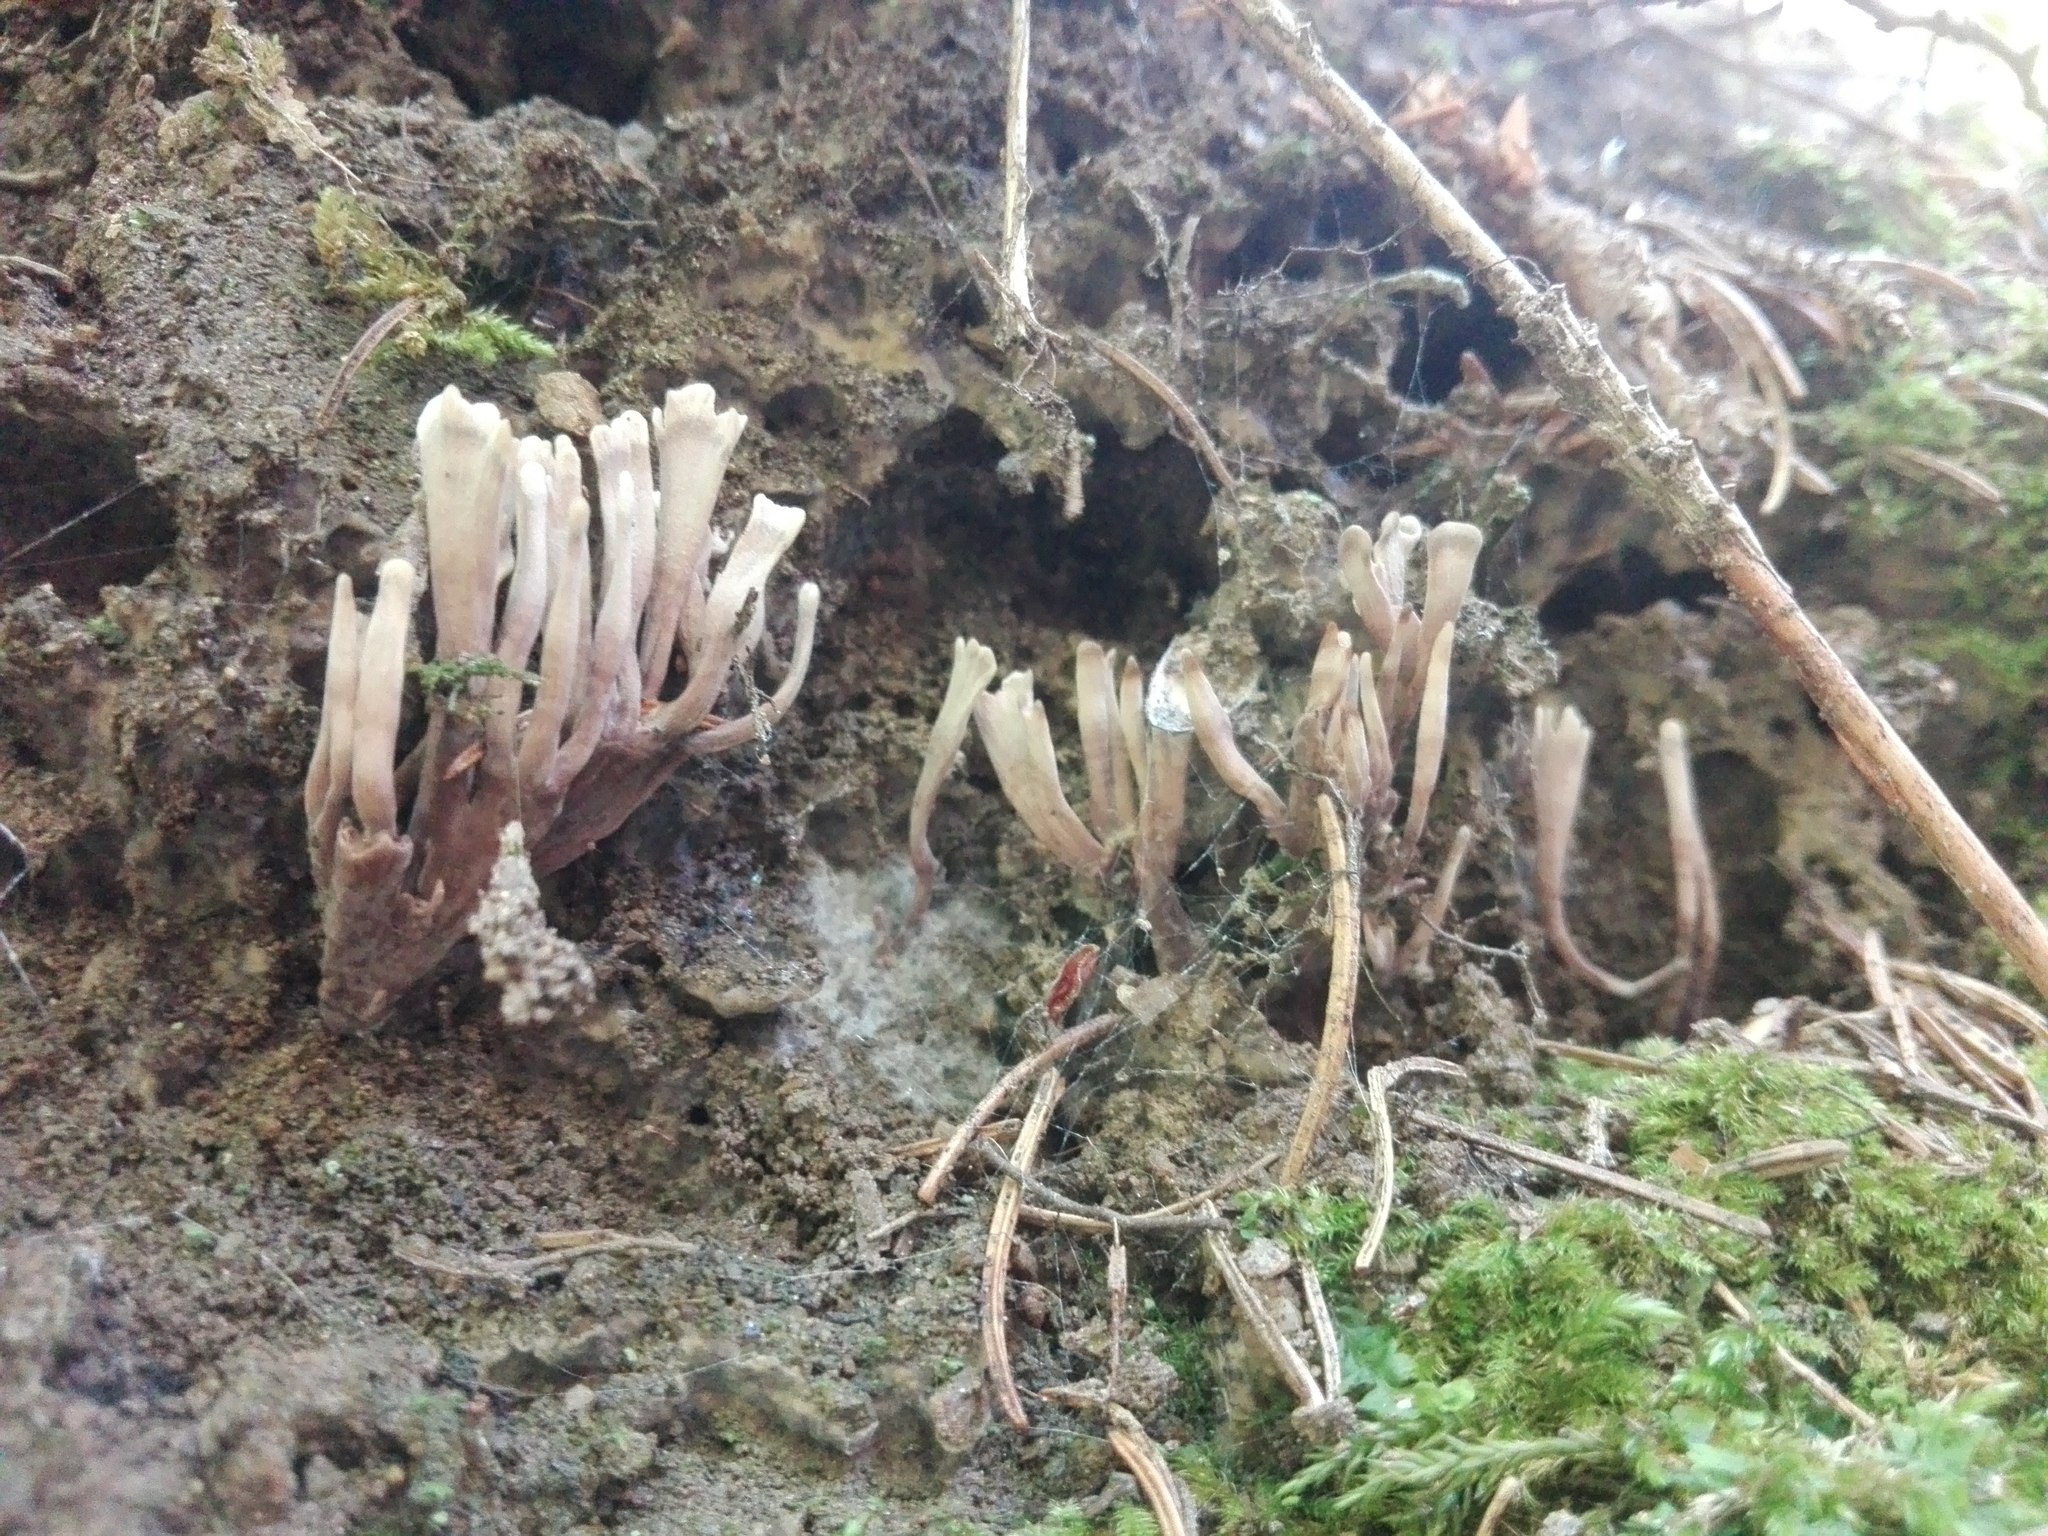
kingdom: Fungi
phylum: Basidiomycota
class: Agaricomycetes
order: Thelephorales
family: Thelephoraceae
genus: Thelephora
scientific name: Thelephora palmata
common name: Stinking earthfan
